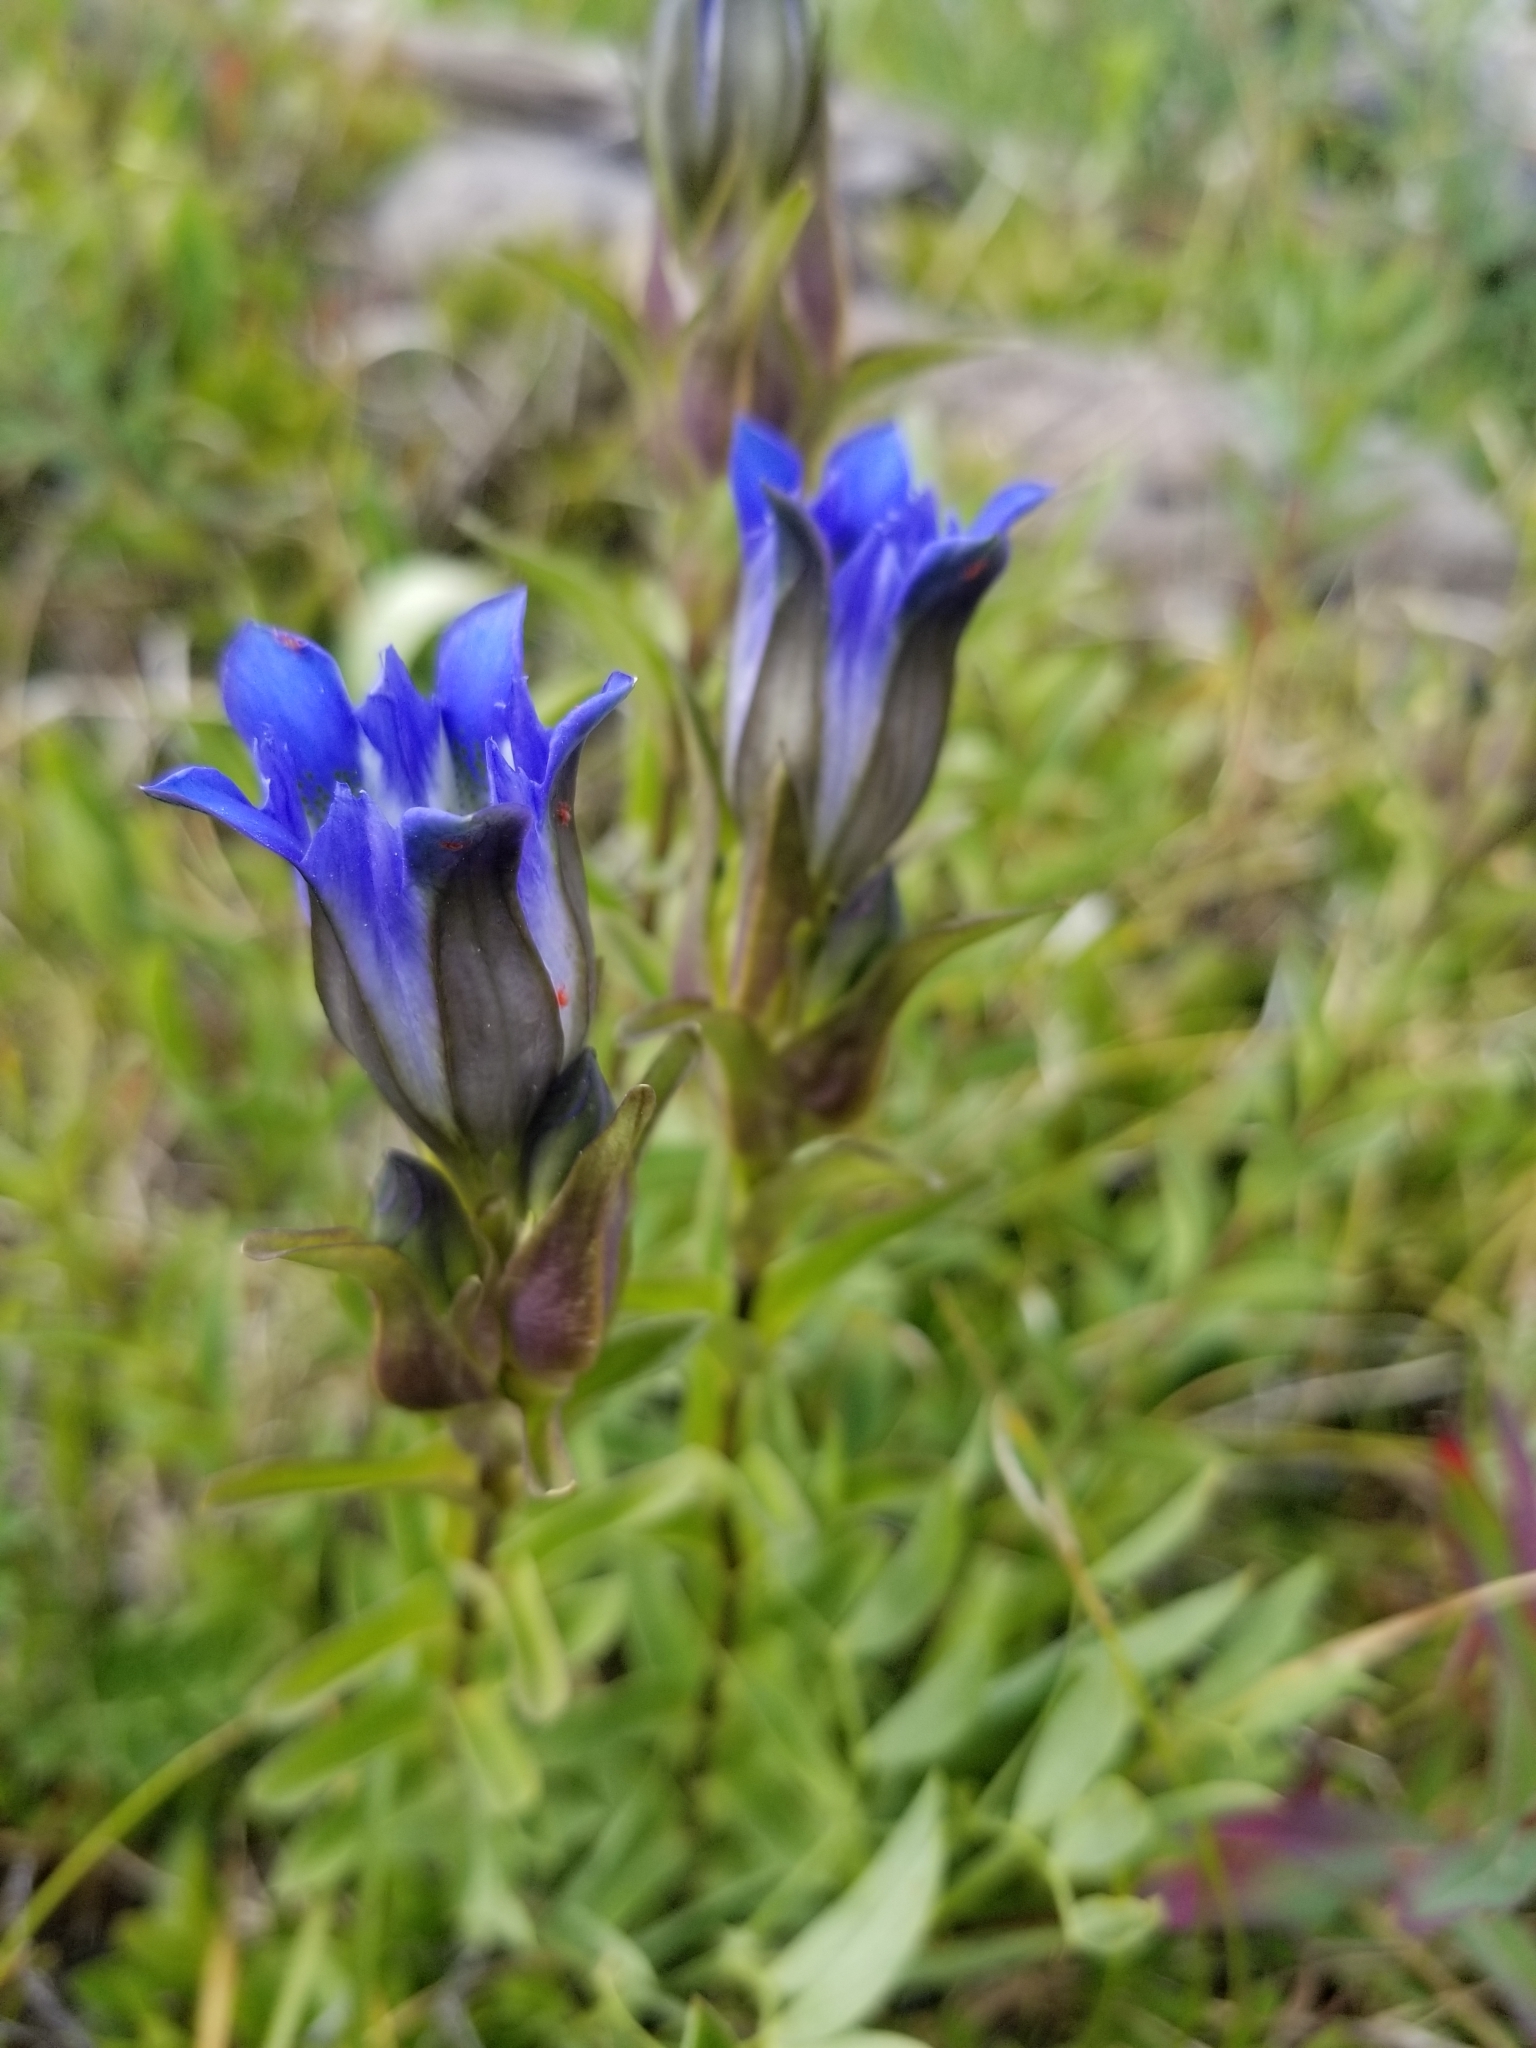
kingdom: Plantae
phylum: Tracheophyta
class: Magnoliopsida
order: Gentianales
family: Gentianaceae
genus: Gentiana
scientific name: Gentiana parryi
